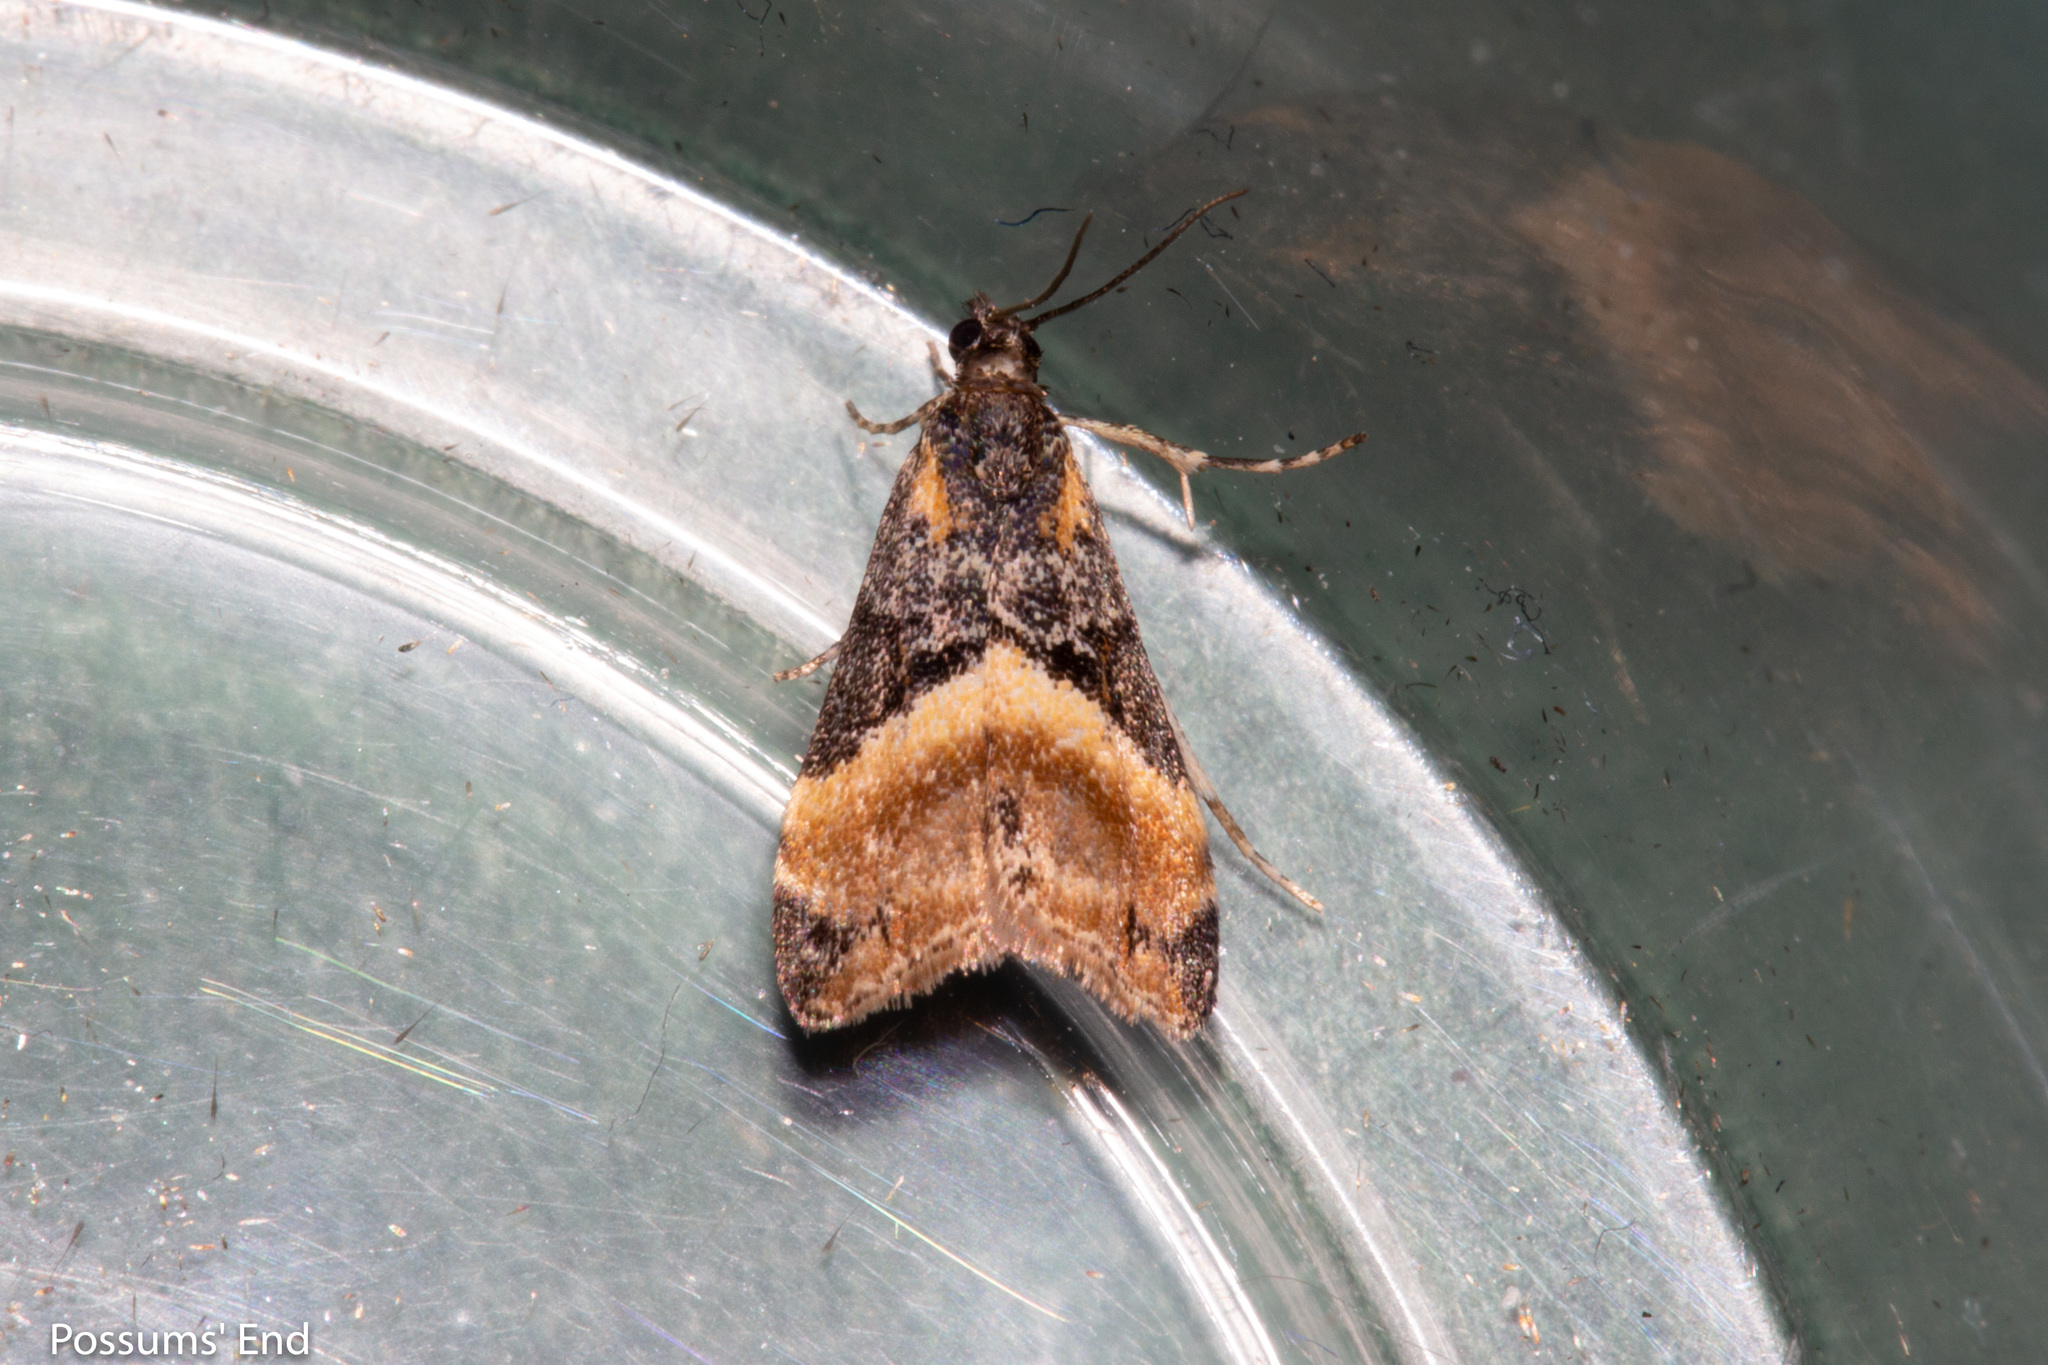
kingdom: Animalia
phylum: Arthropoda
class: Insecta
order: Lepidoptera
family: Crambidae
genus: Eudonia
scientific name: Eudonia chlamydota
